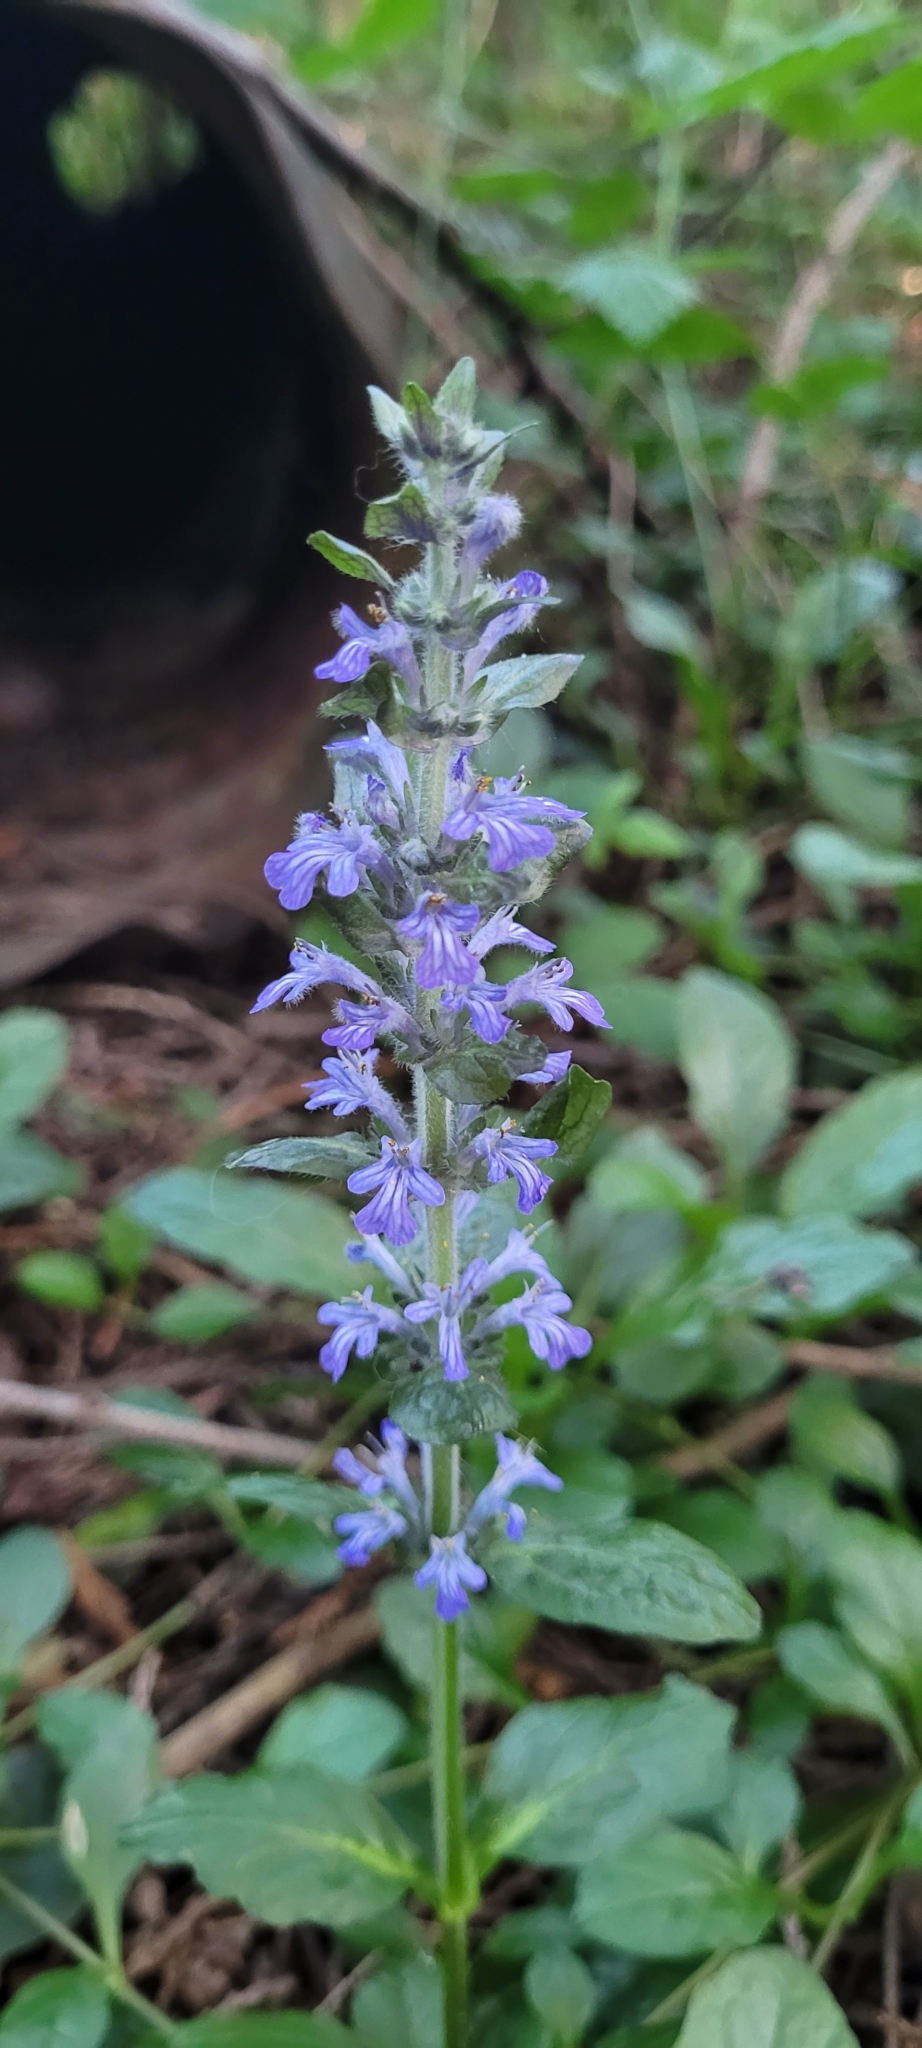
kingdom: Plantae
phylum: Tracheophyta
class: Magnoliopsida
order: Lamiales
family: Lamiaceae
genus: Ajuga
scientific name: Ajuga reptans
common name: Bugle
